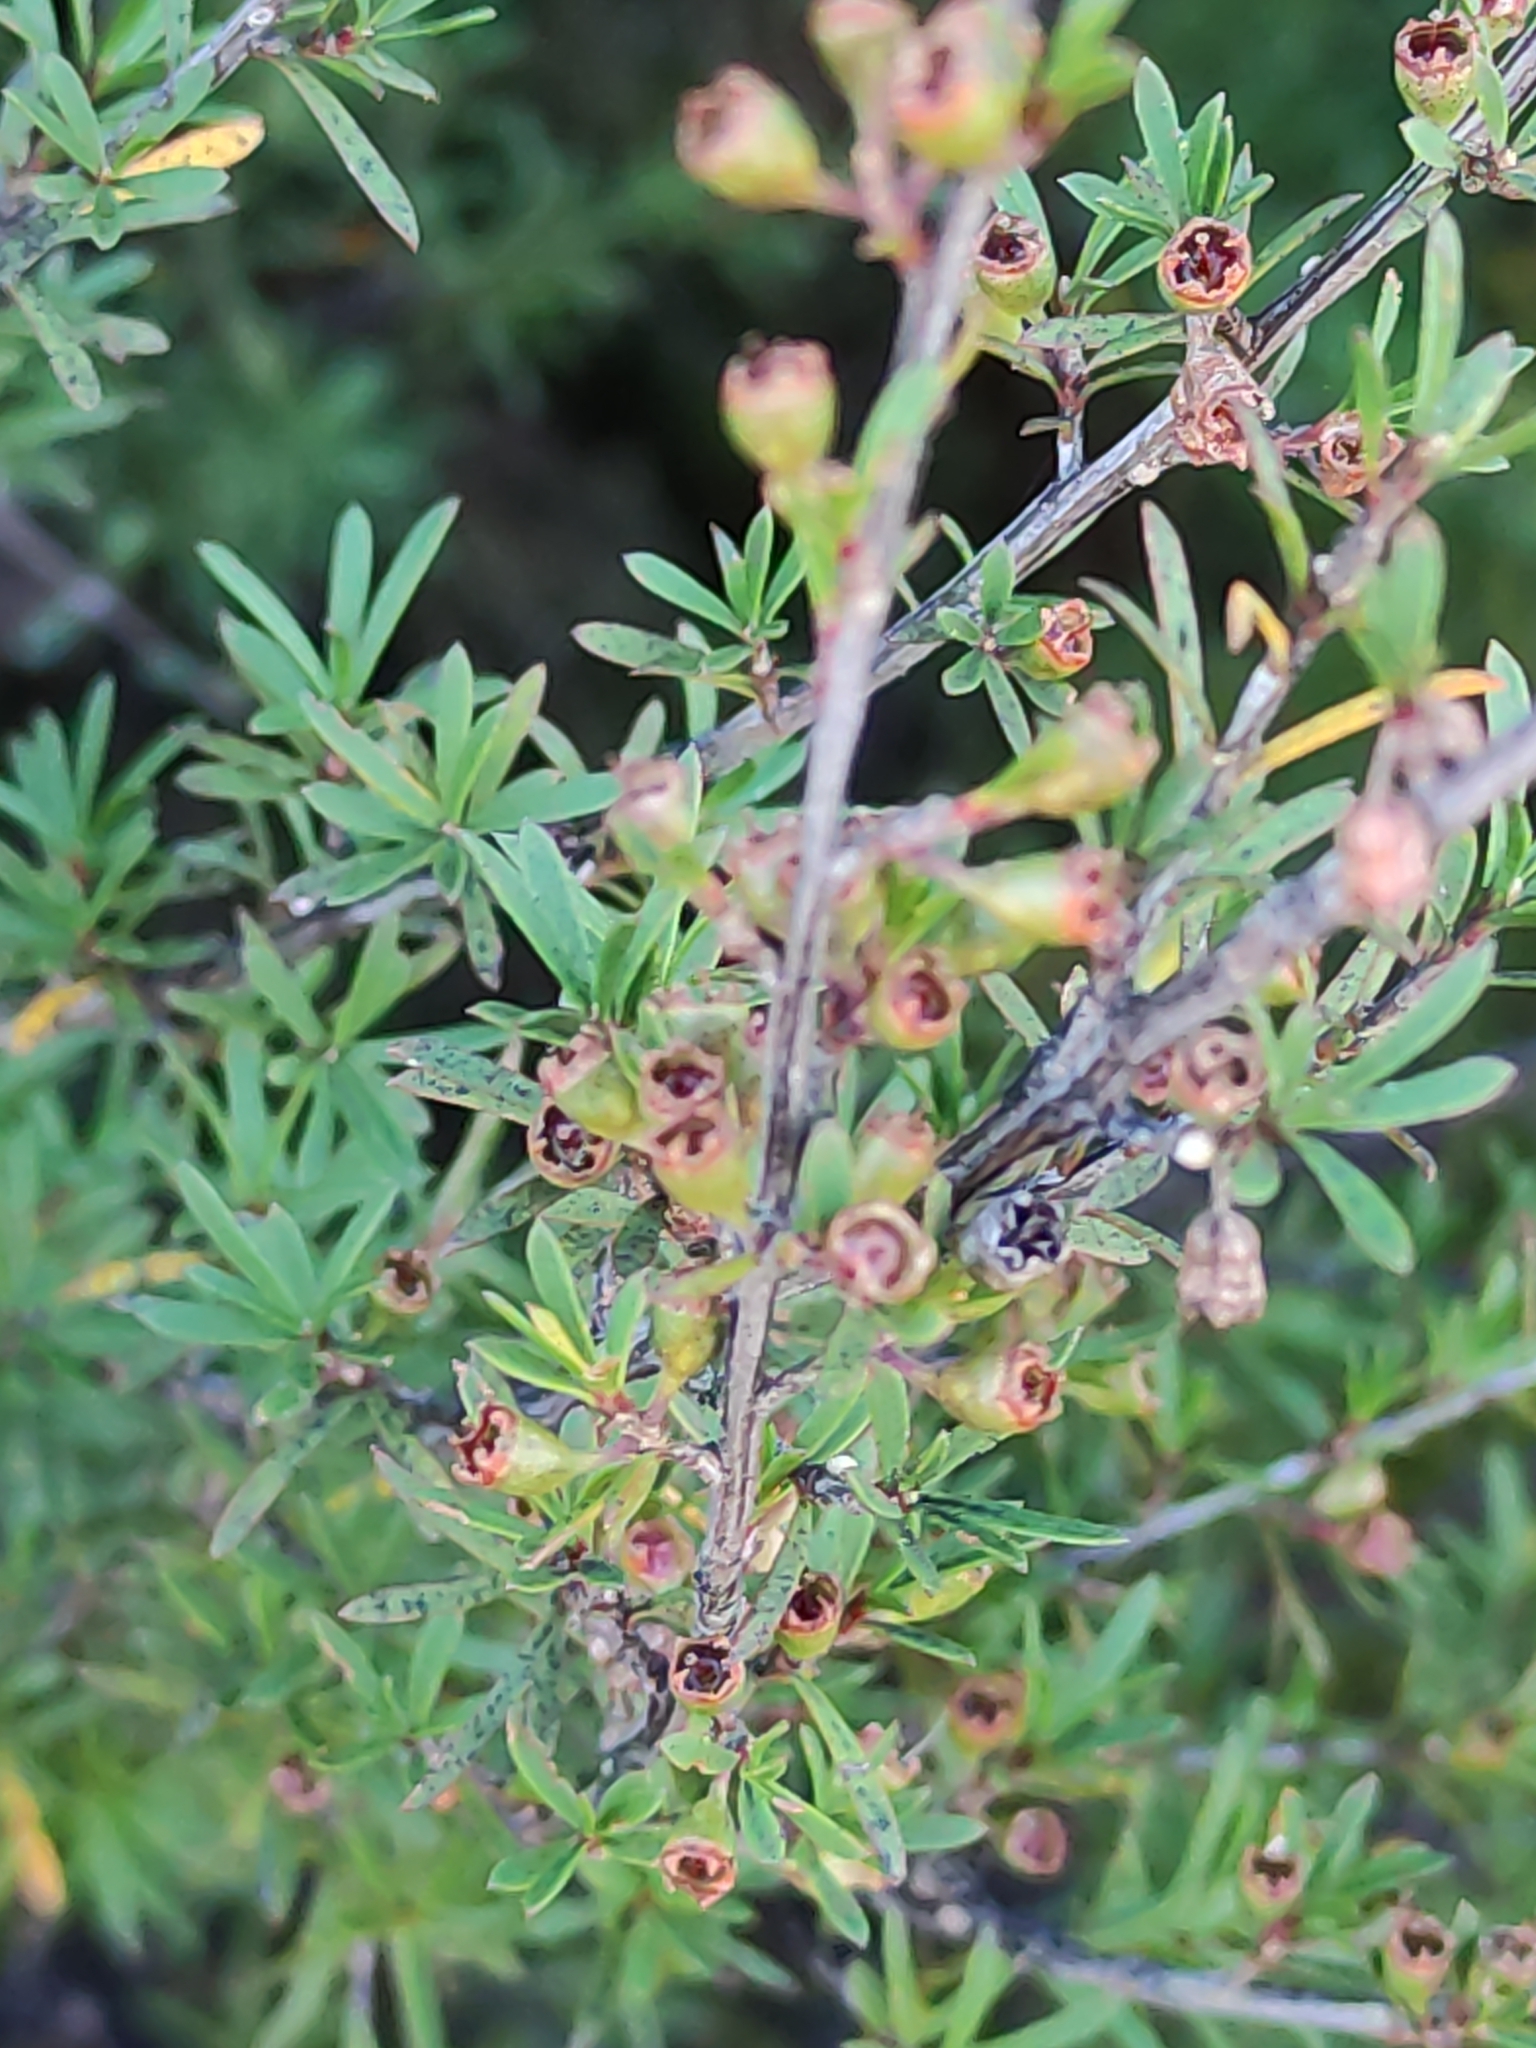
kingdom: Plantae
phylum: Tracheophyta
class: Magnoliopsida
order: Myrtales
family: Myrtaceae
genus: Kunzea
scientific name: Kunzea ericoides
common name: Burgan
